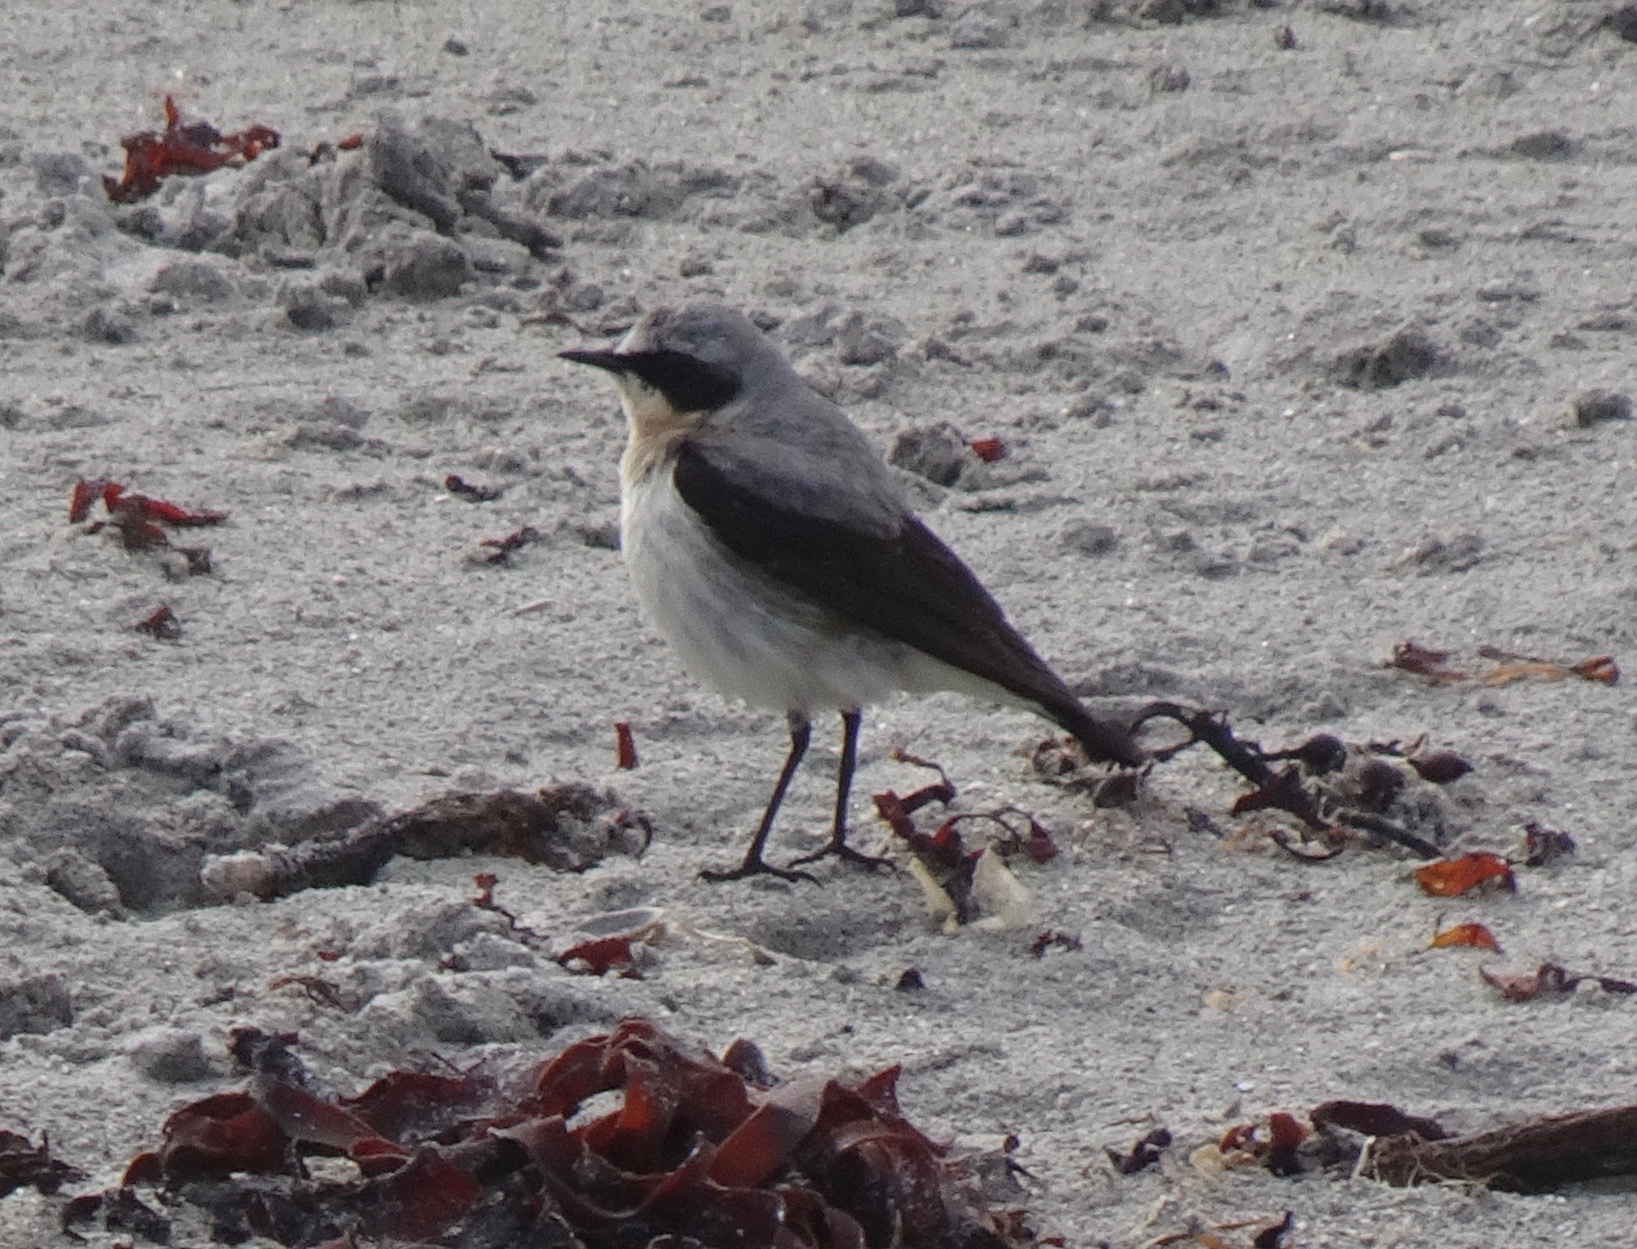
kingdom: Animalia
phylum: Chordata
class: Aves
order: Passeriformes
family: Muscicapidae
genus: Oenanthe
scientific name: Oenanthe oenanthe
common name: Northern wheatear
